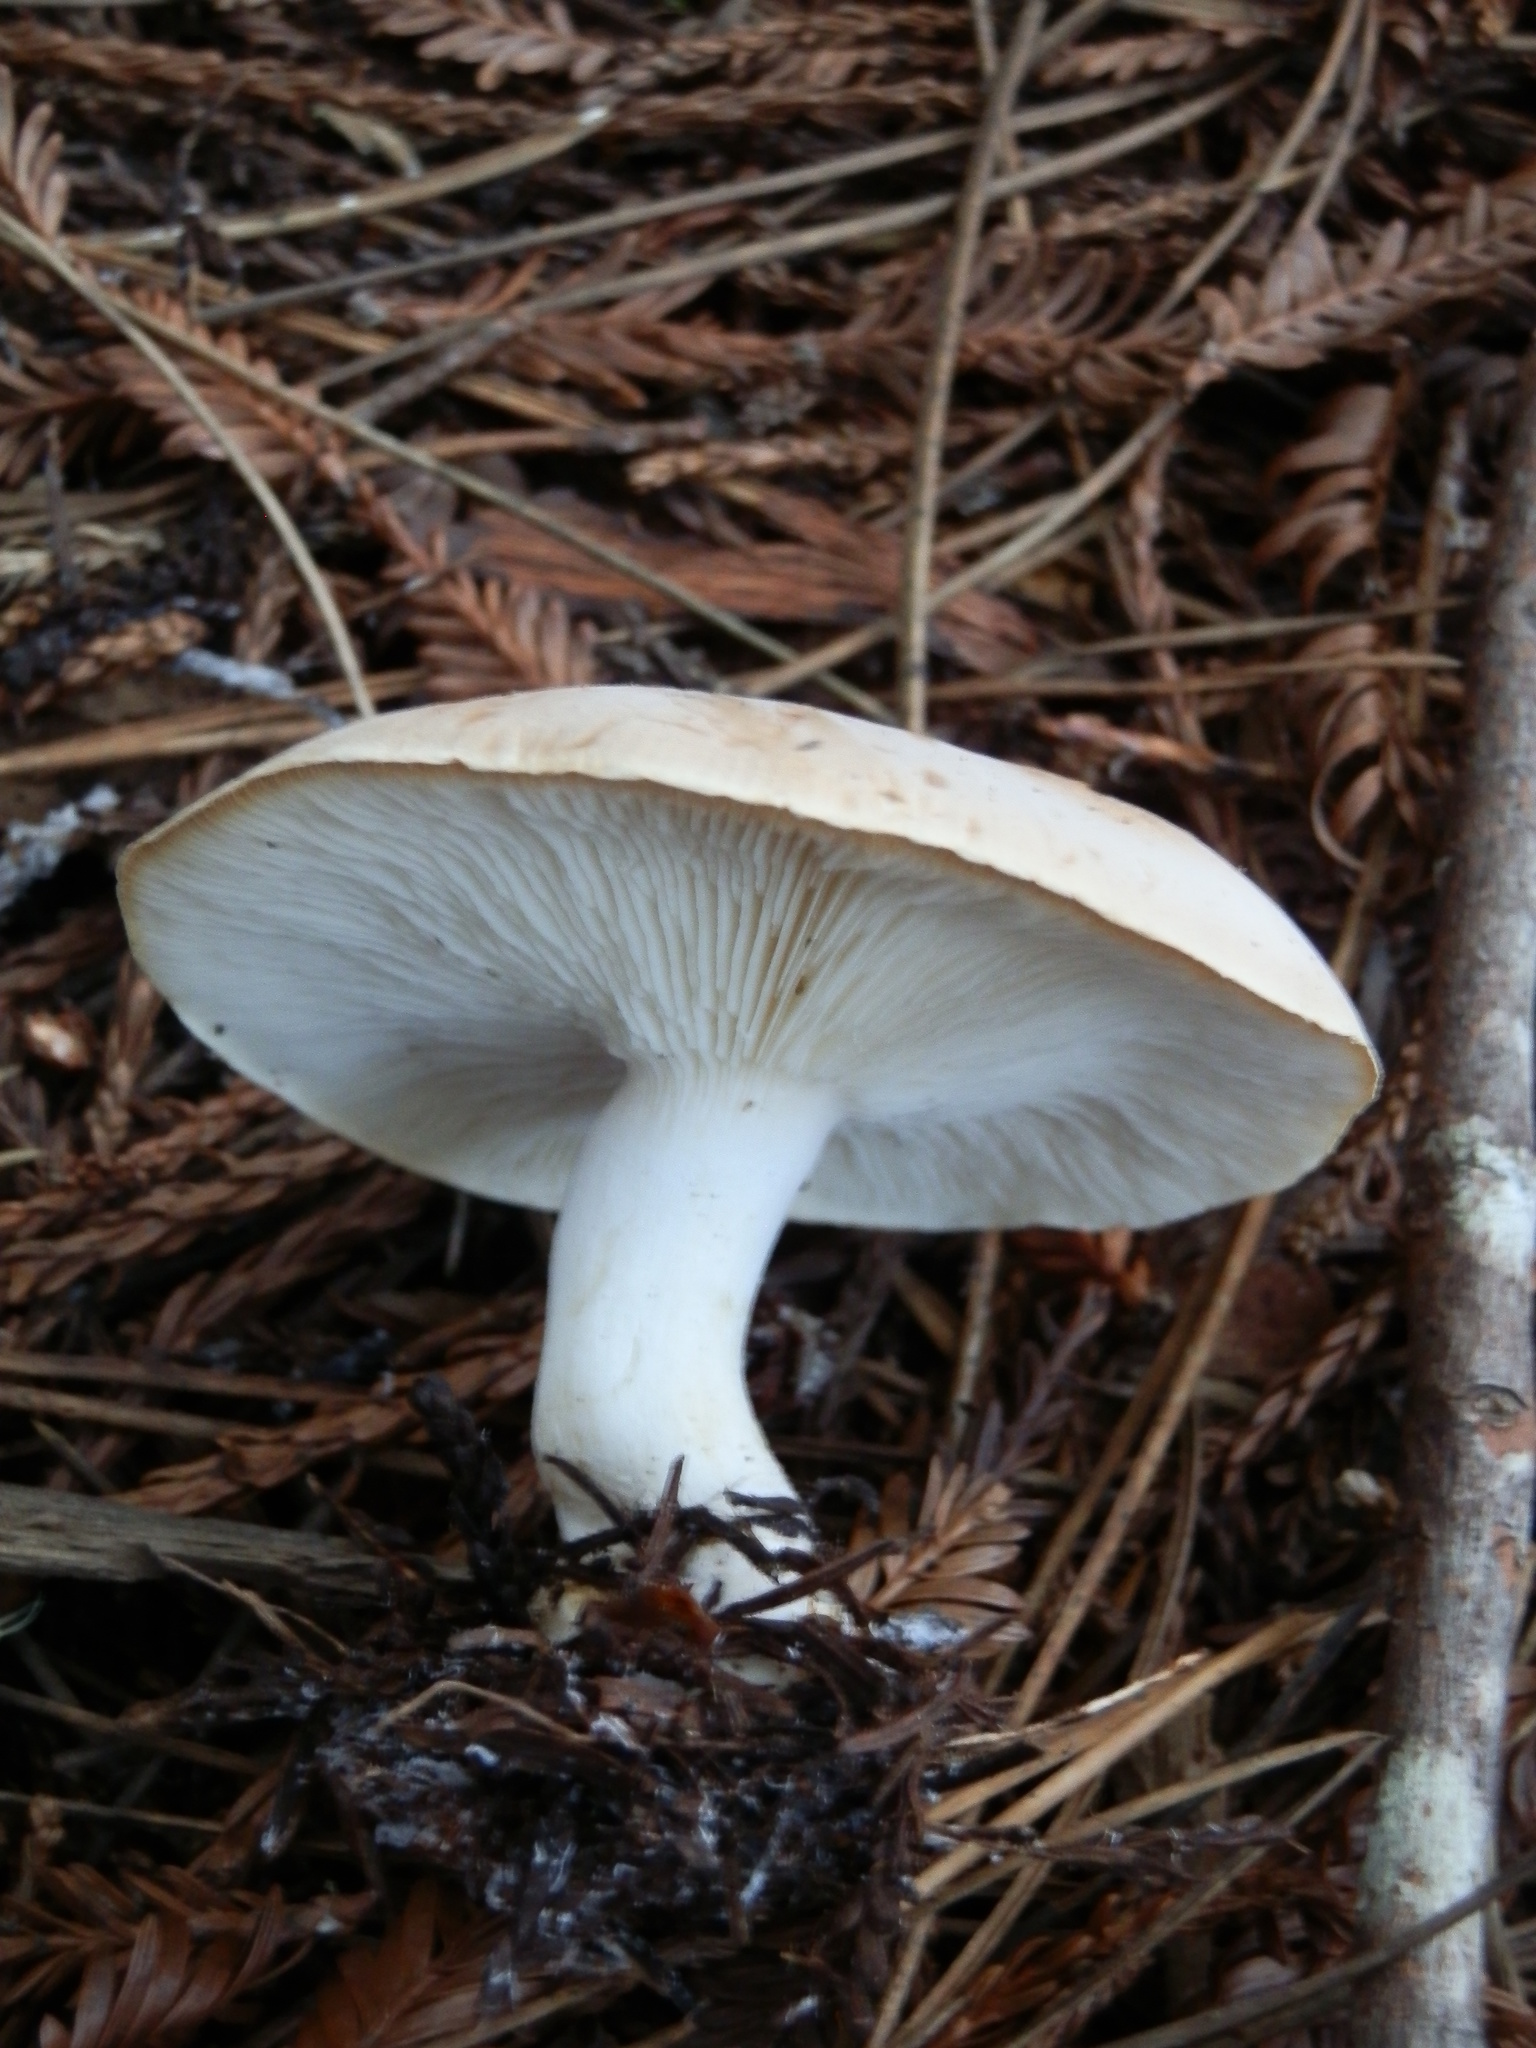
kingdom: Fungi
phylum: Basidiomycota
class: Agaricomycetes
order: Agaricales
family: Tricholomataceae
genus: Leucopaxillus
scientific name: Leucopaxillus gentianeus
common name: Bitter funnel
